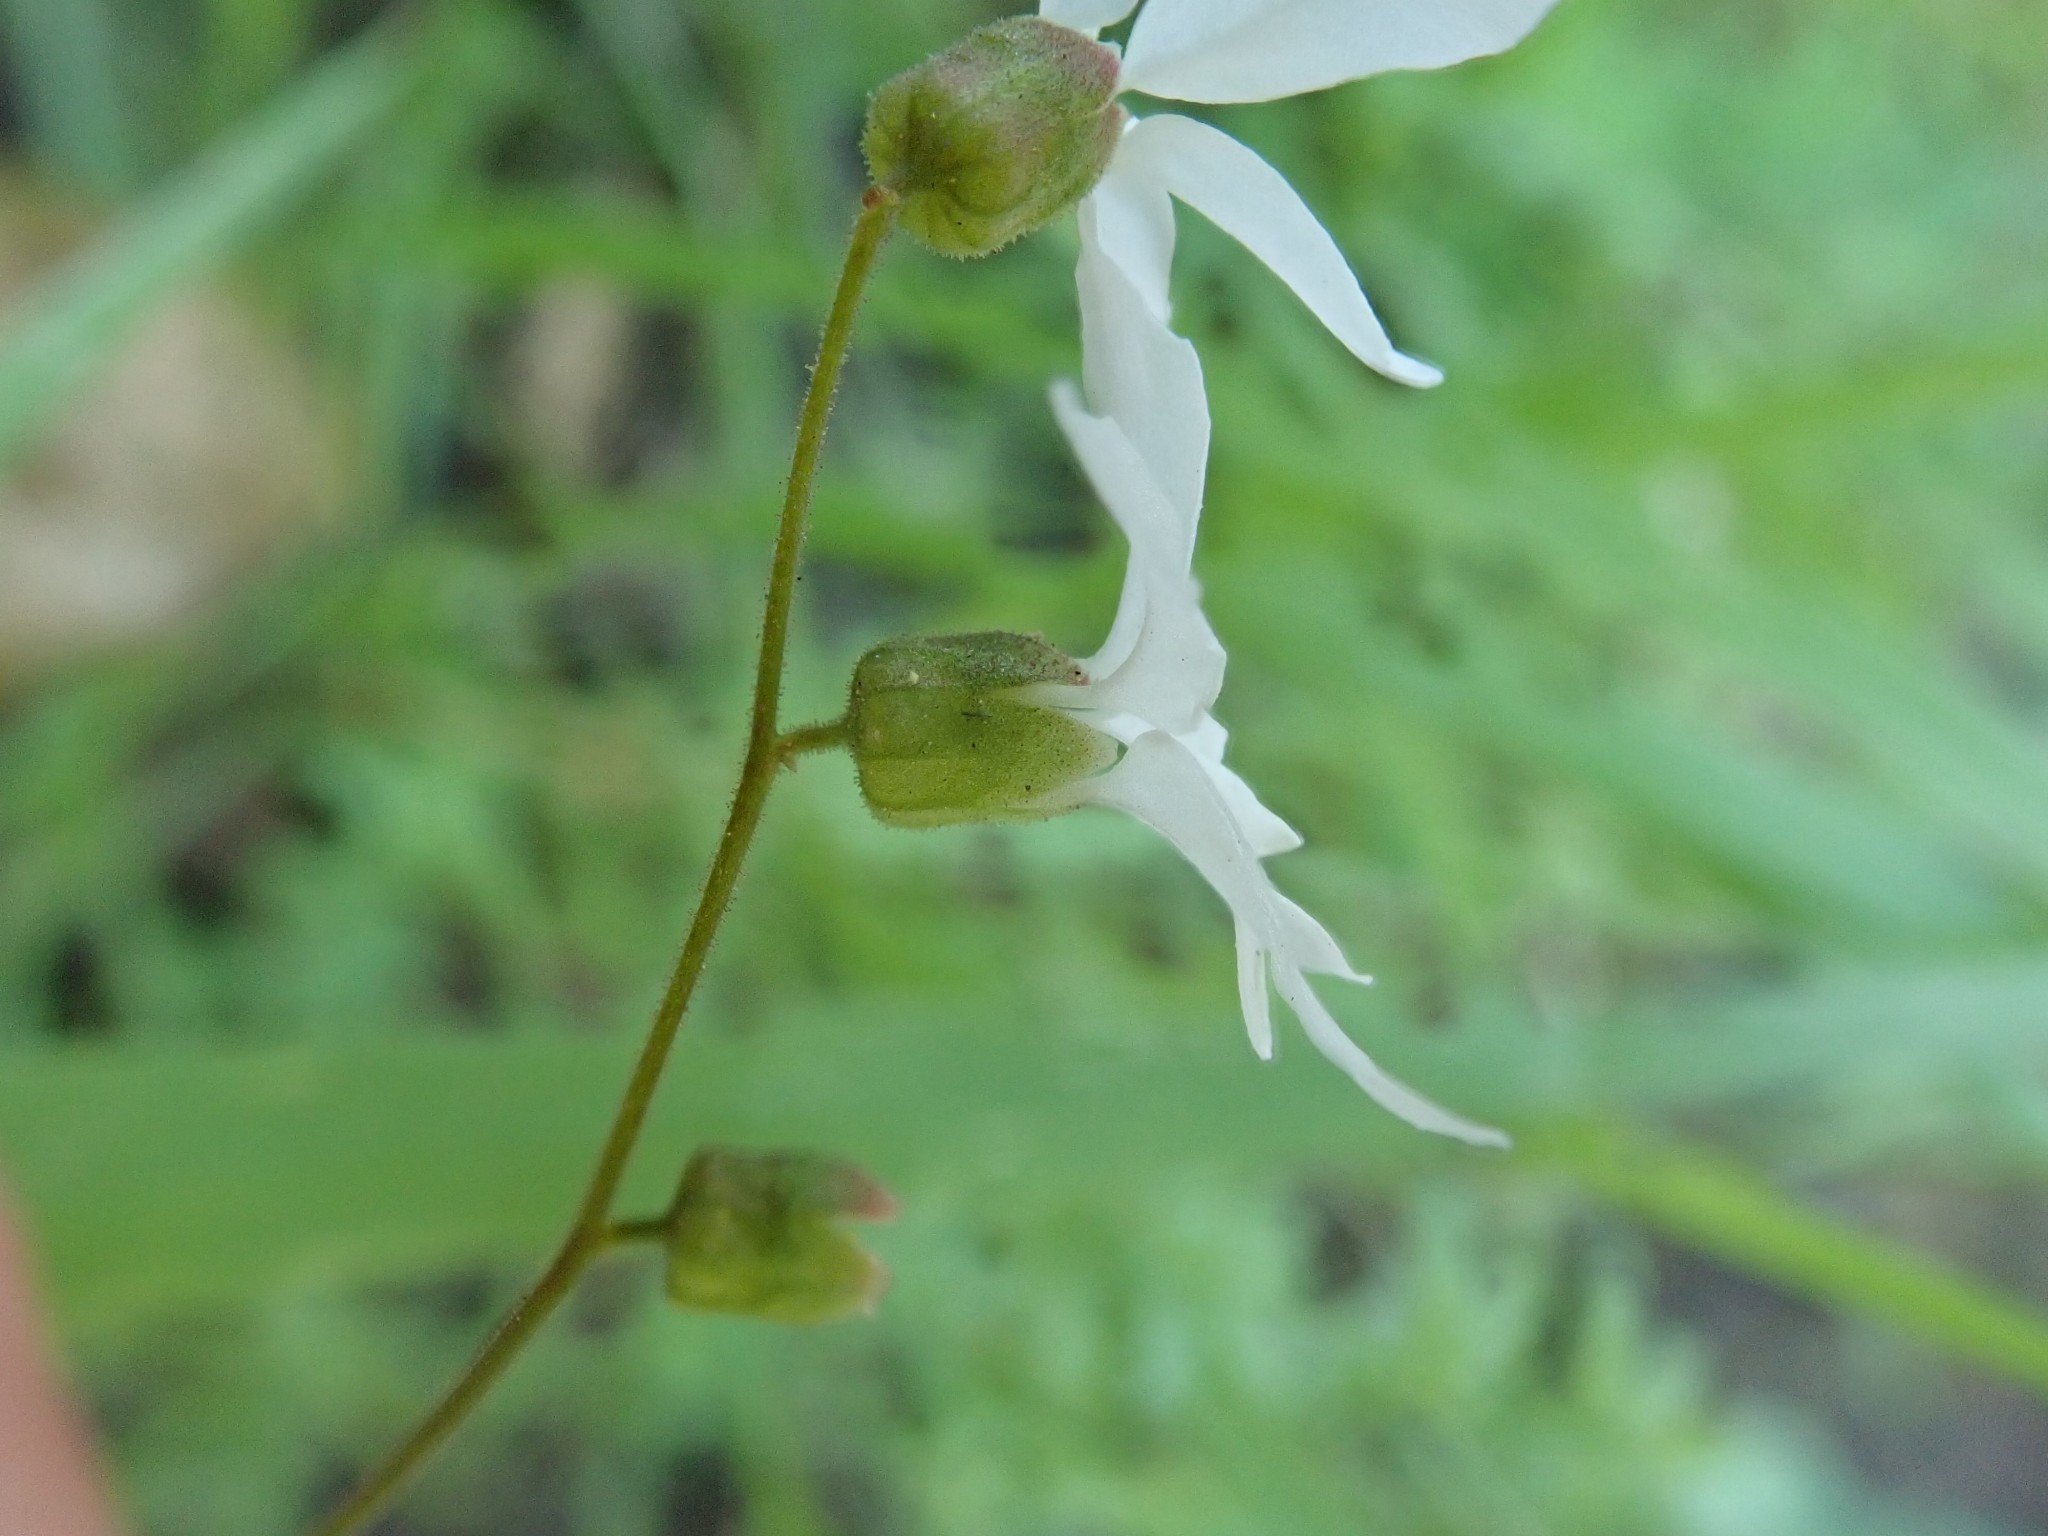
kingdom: Plantae
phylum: Tracheophyta
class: Magnoliopsida
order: Saxifragales
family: Saxifragaceae
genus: Lithophragma
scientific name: Lithophragma heterophyllum
